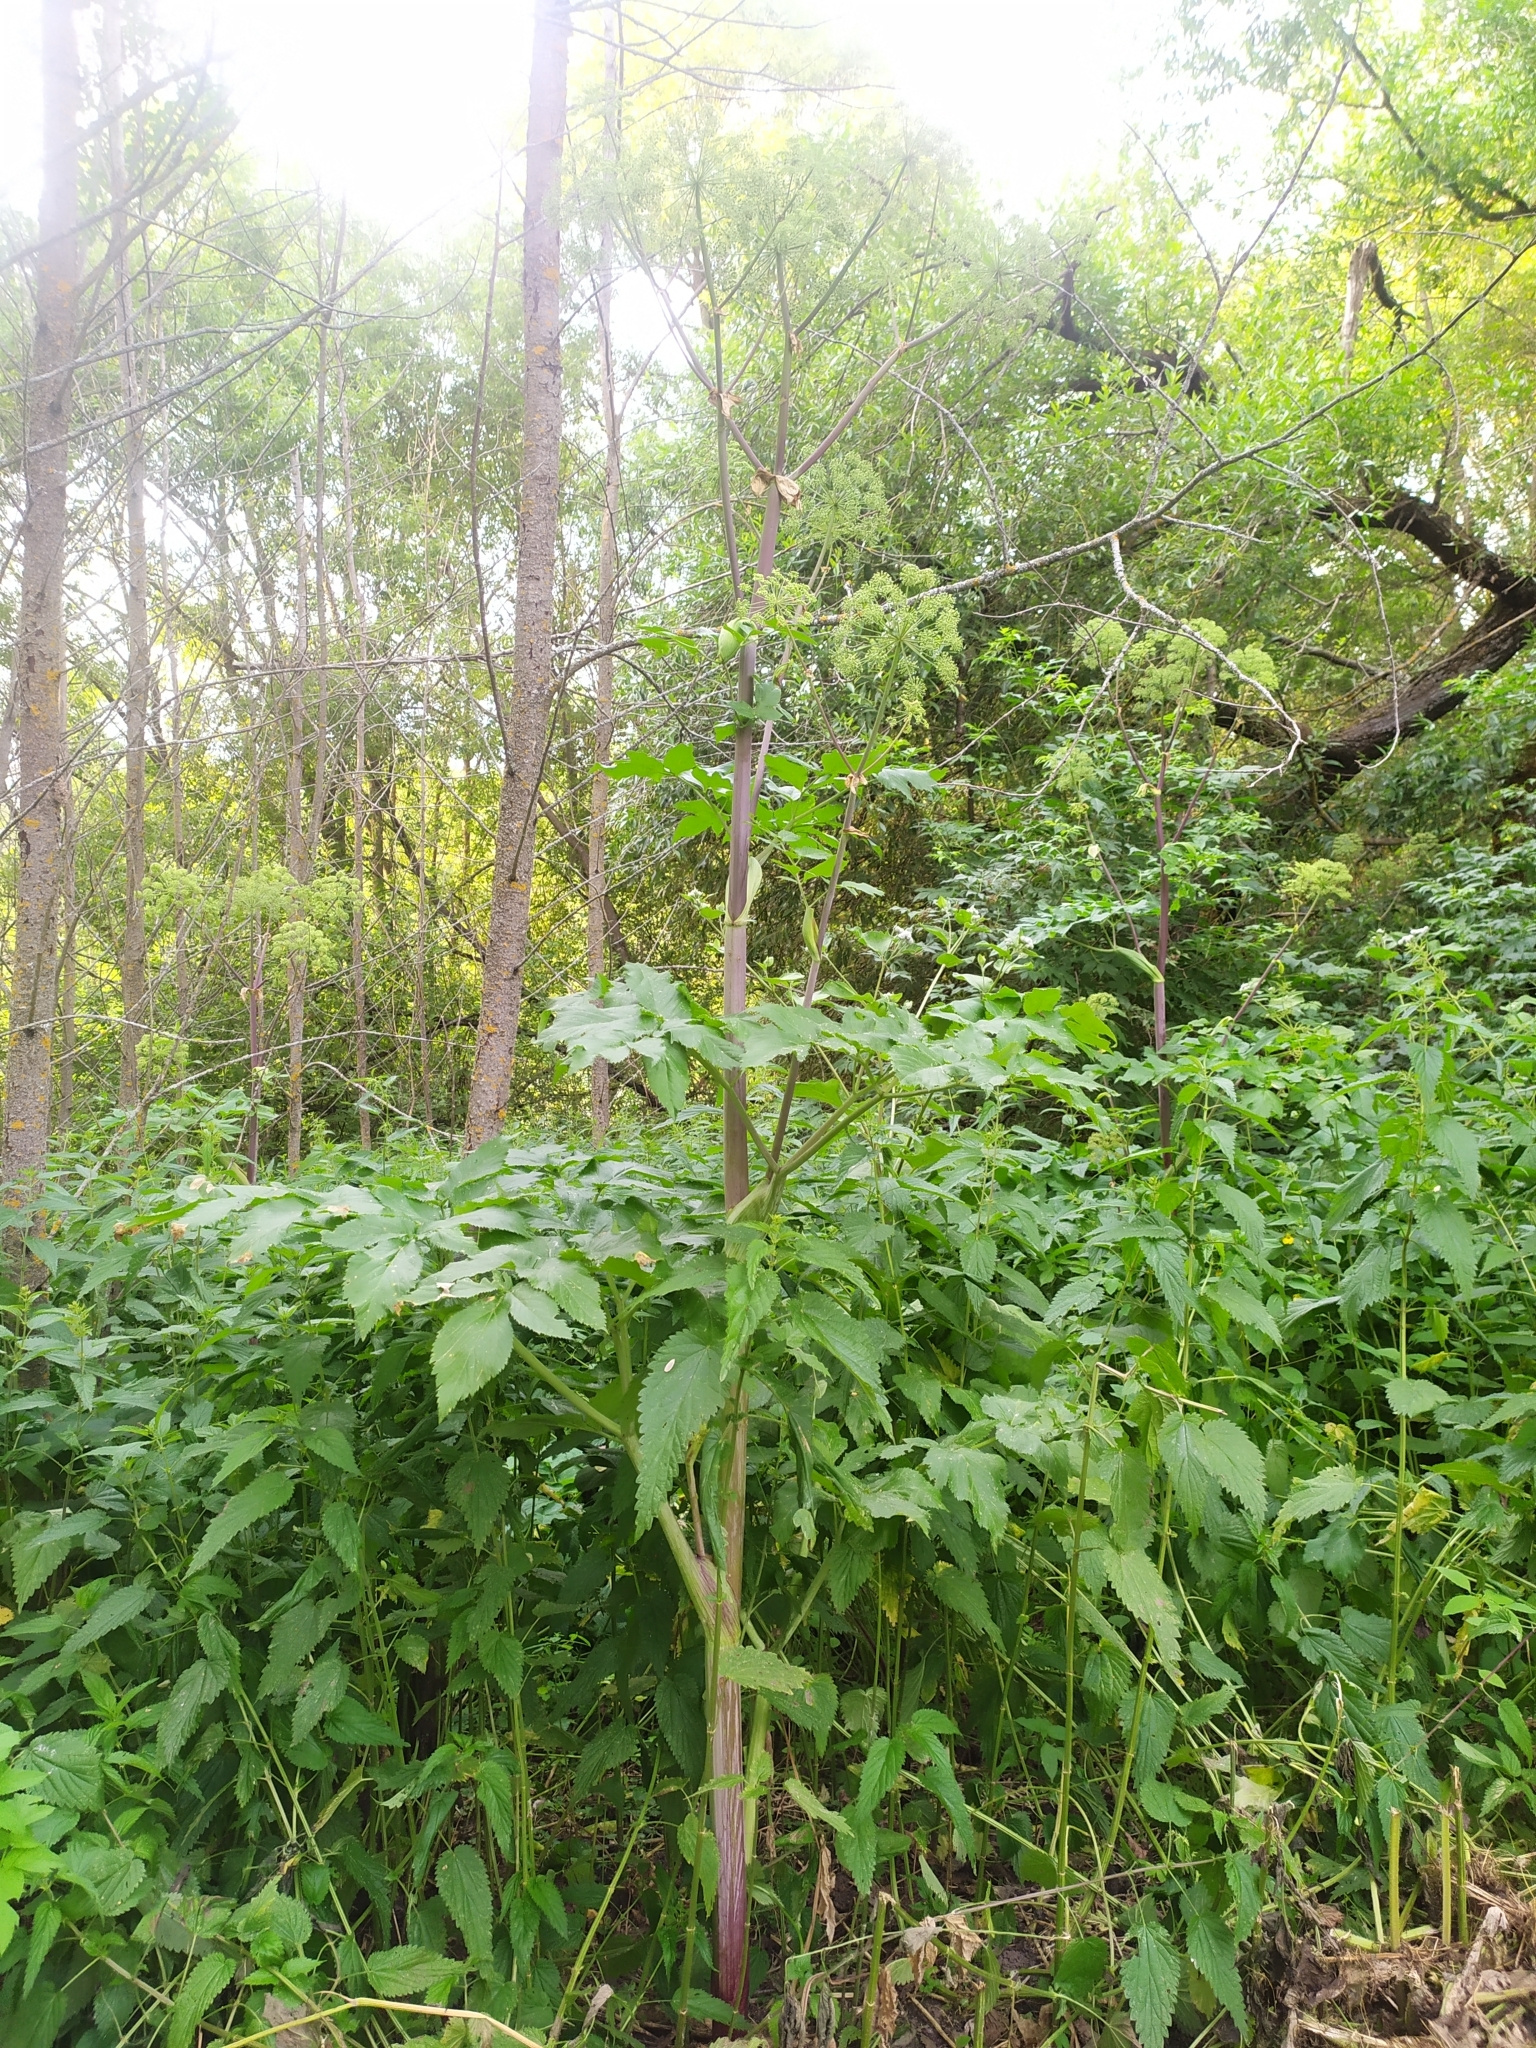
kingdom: Plantae
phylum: Tracheophyta
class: Magnoliopsida
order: Apiales
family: Apiaceae
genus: Angelica
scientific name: Angelica archangelica
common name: Garden angelica
